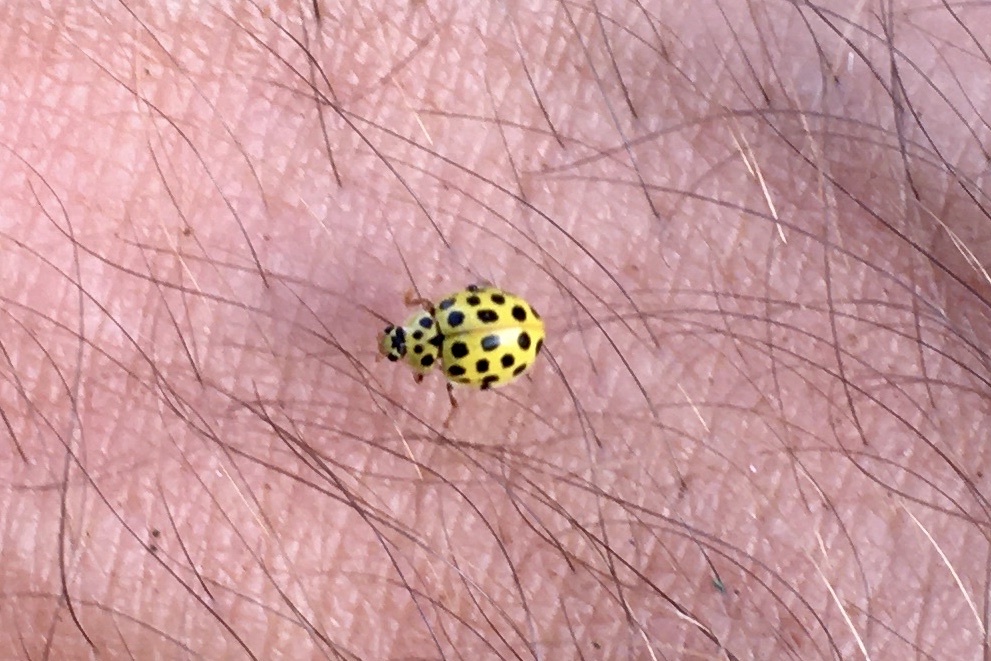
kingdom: Animalia
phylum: Arthropoda
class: Insecta
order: Coleoptera
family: Coccinellidae
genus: Psyllobora
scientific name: Psyllobora vigintiduopunctata
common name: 22-spot ladybird
